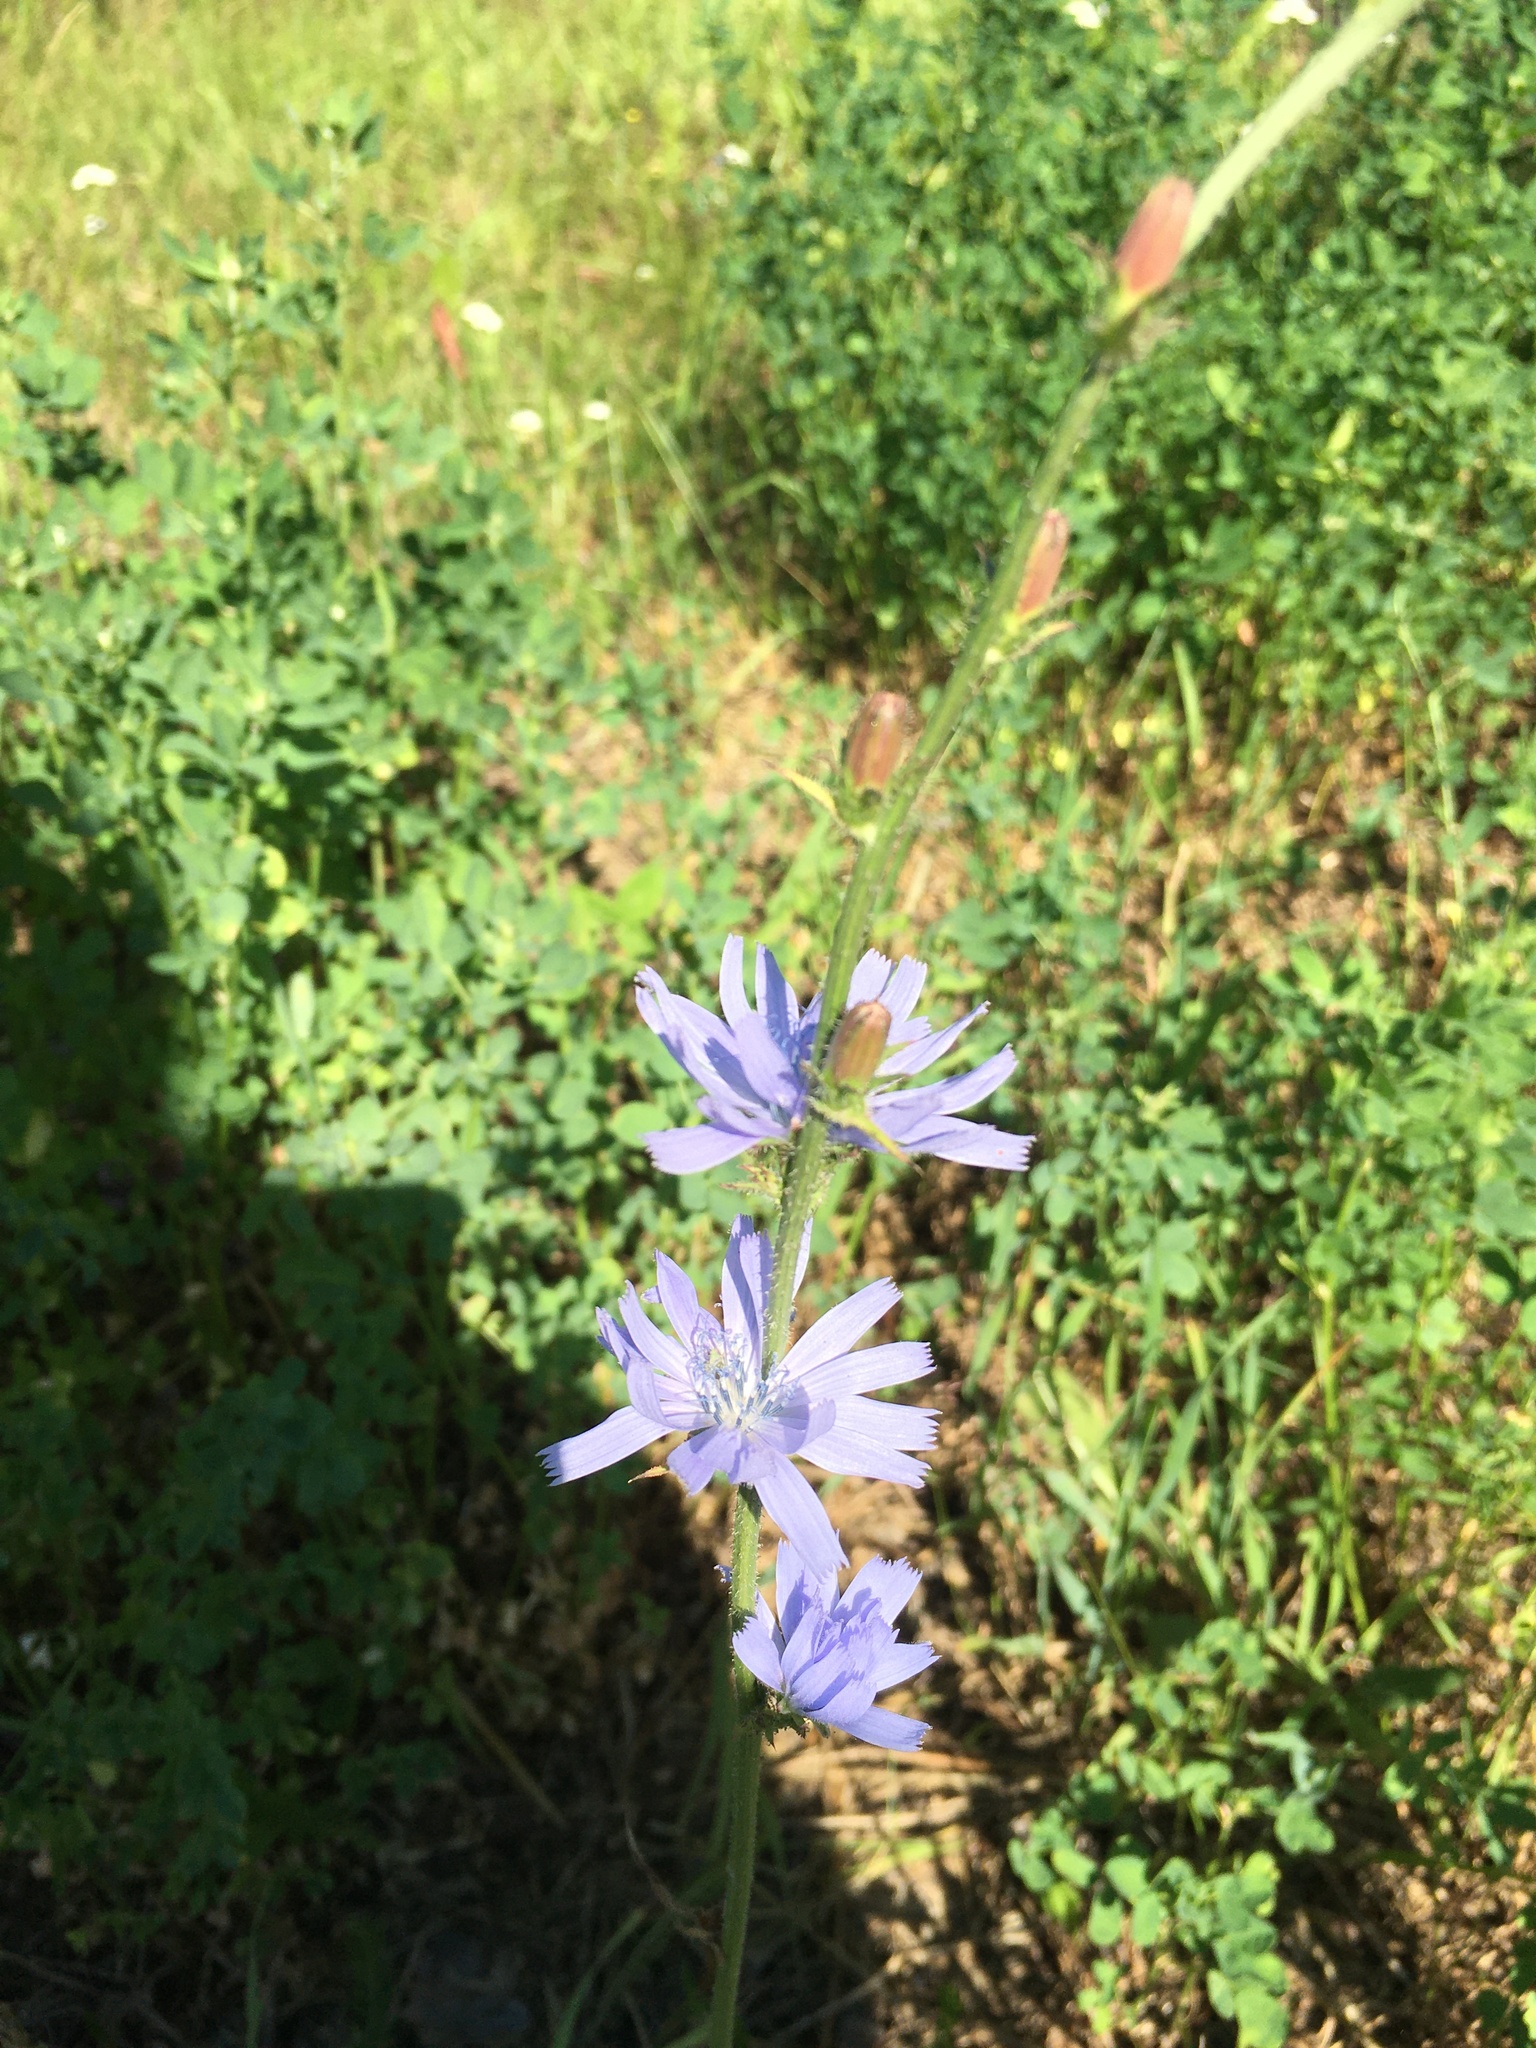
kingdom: Plantae
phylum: Tracheophyta
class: Magnoliopsida
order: Asterales
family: Asteraceae
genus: Cichorium
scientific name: Cichorium intybus
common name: Chicory
